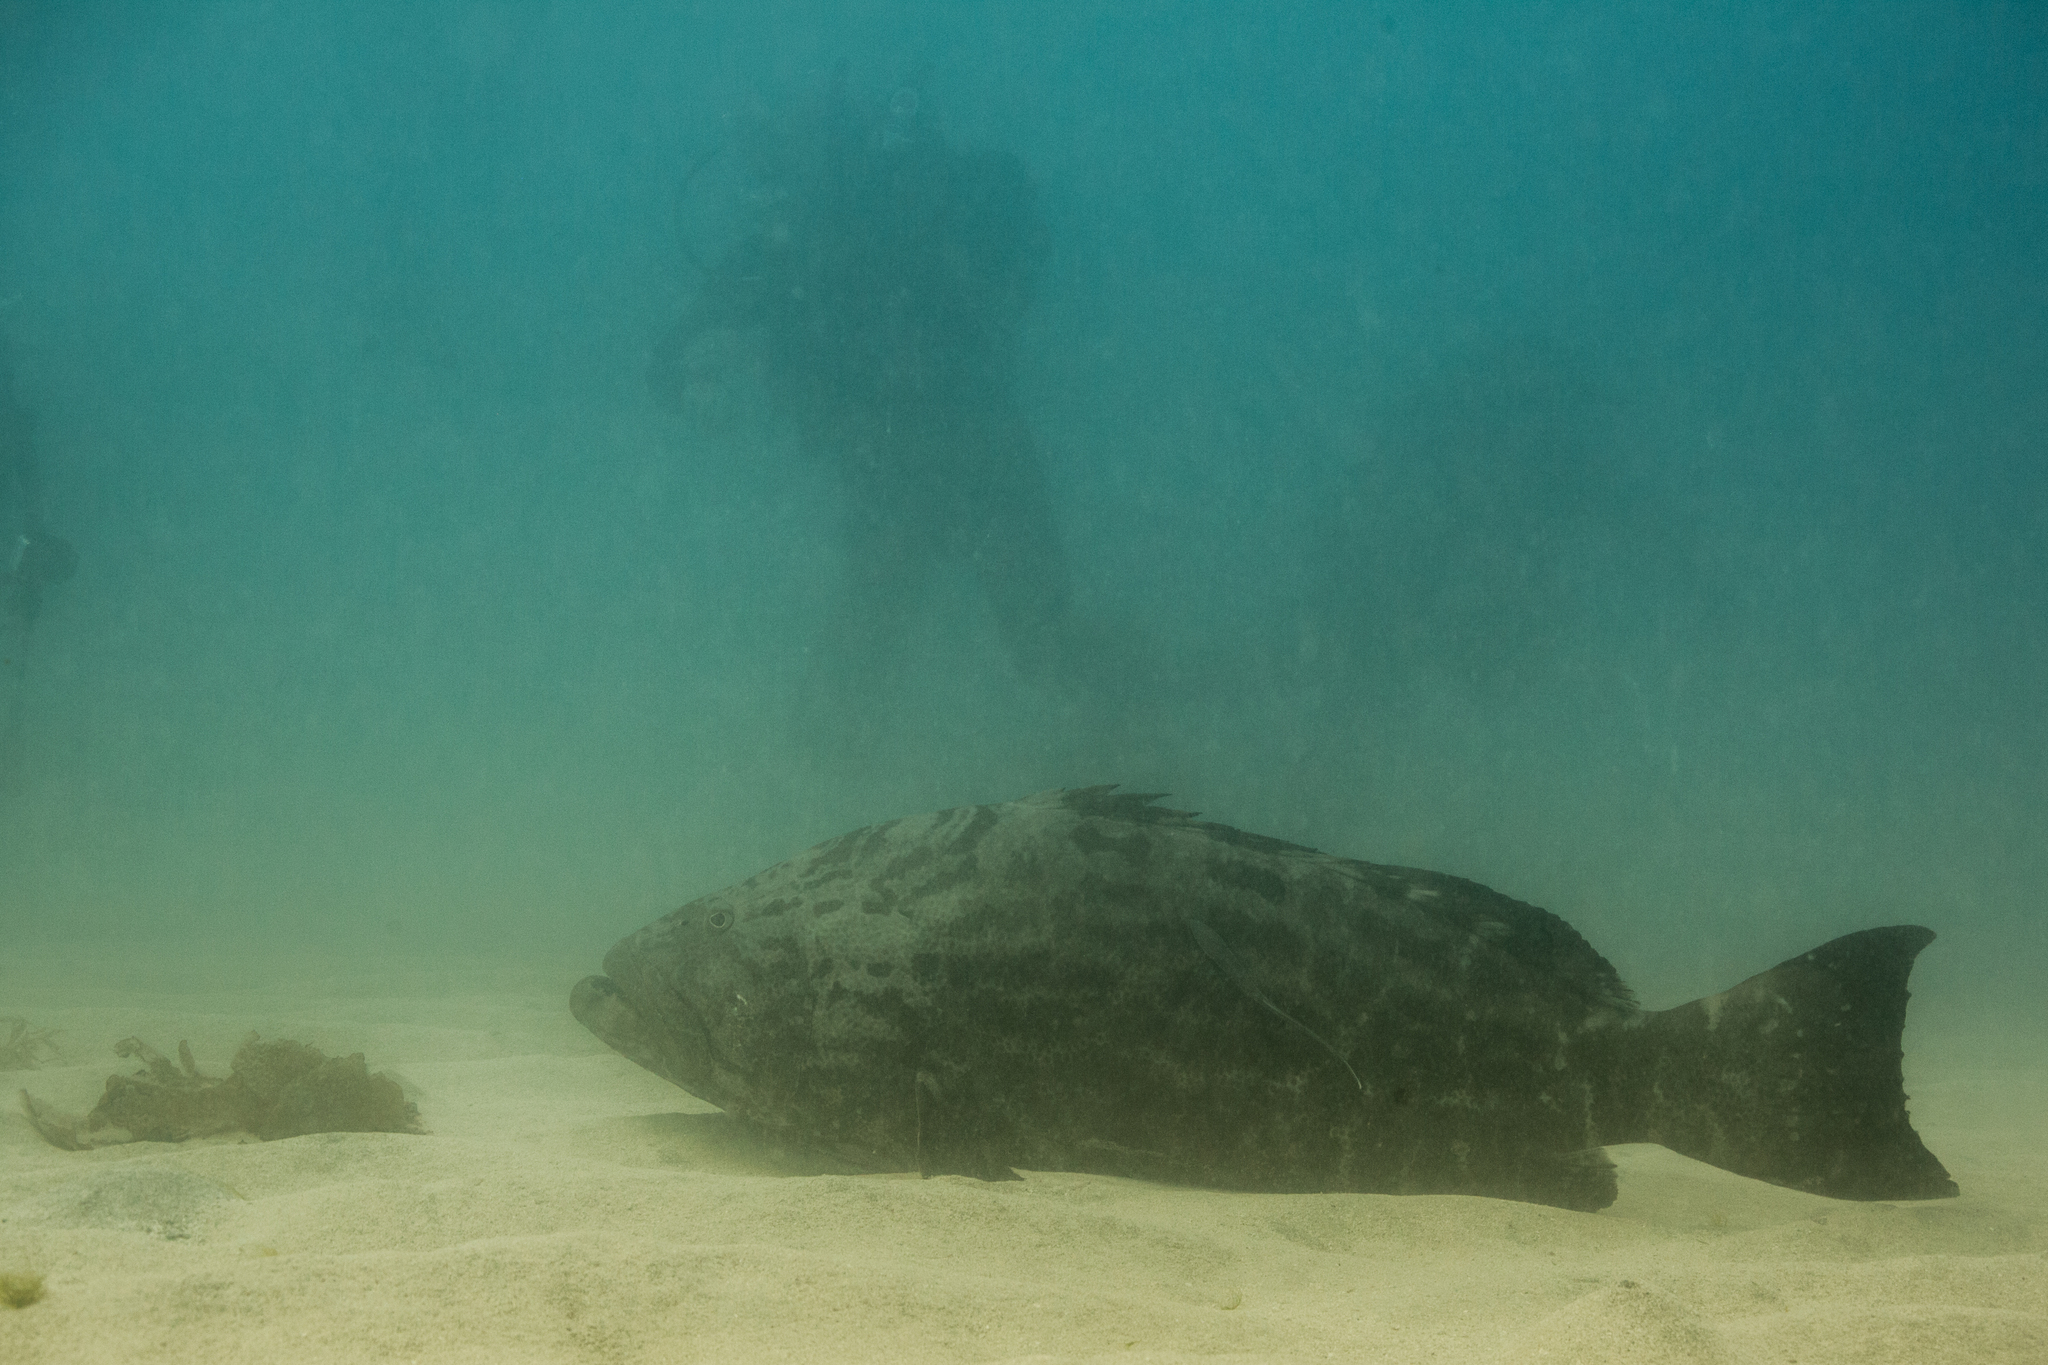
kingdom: Animalia
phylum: Chordata
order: Perciformes
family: Serranidae
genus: Mycteroperca
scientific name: Mycteroperca bonaci
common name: Black grouper
